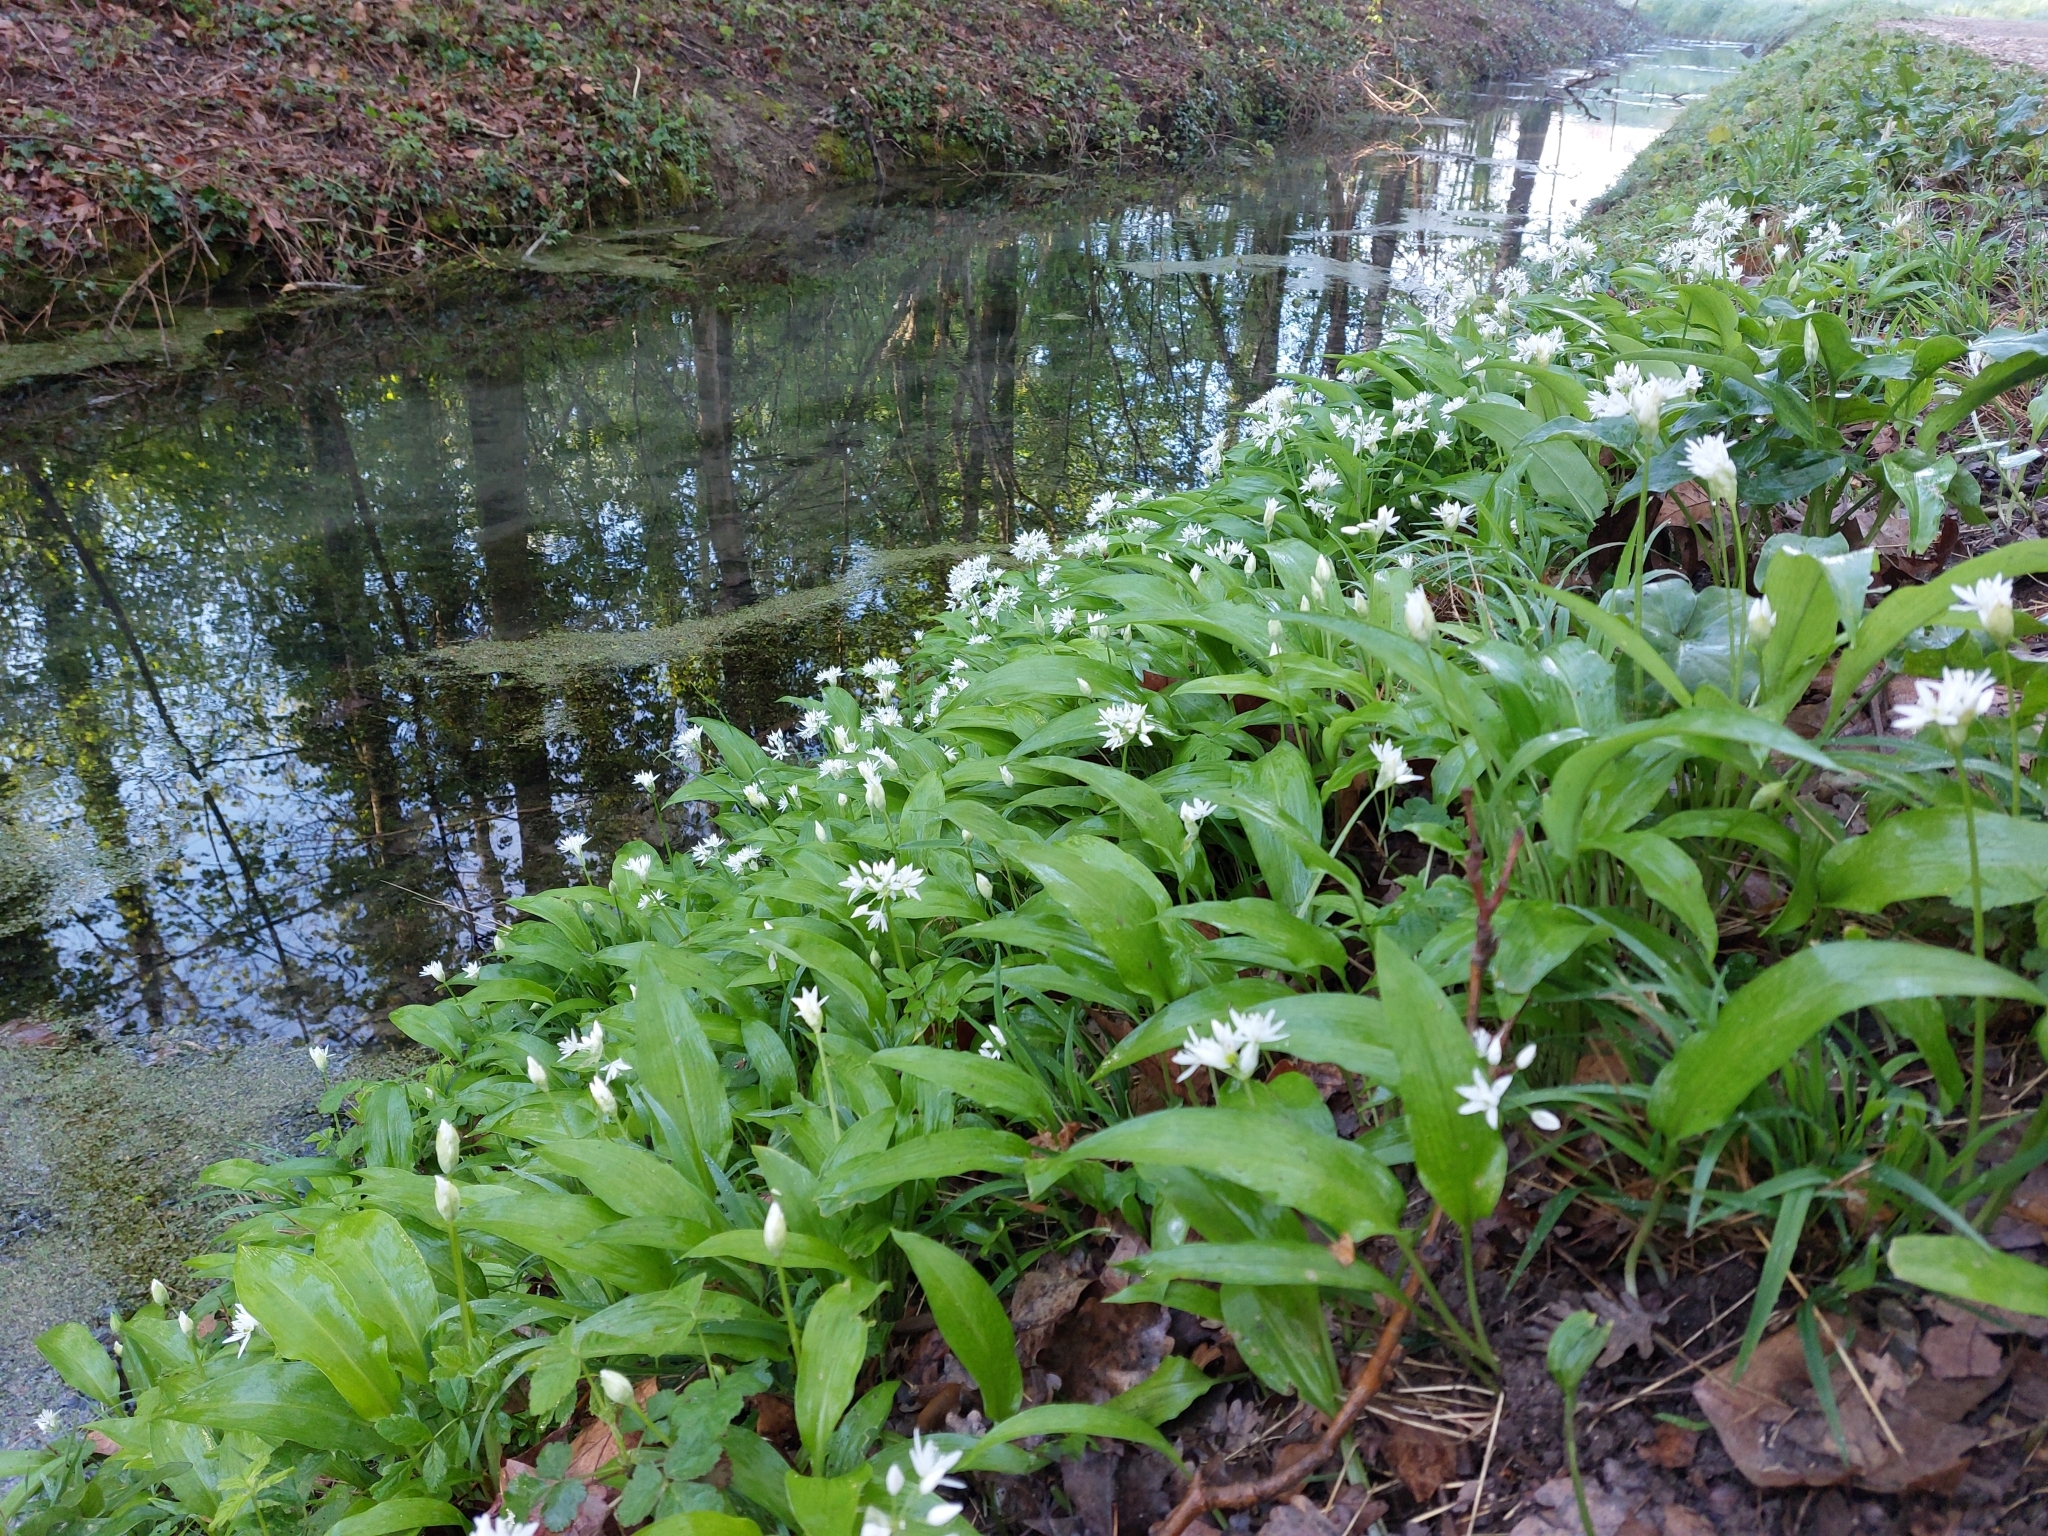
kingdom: Plantae
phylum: Tracheophyta
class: Liliopsida
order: Asparagales
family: Amaryllidaceae
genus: Allium
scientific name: Allium ursinum
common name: Ramsons
